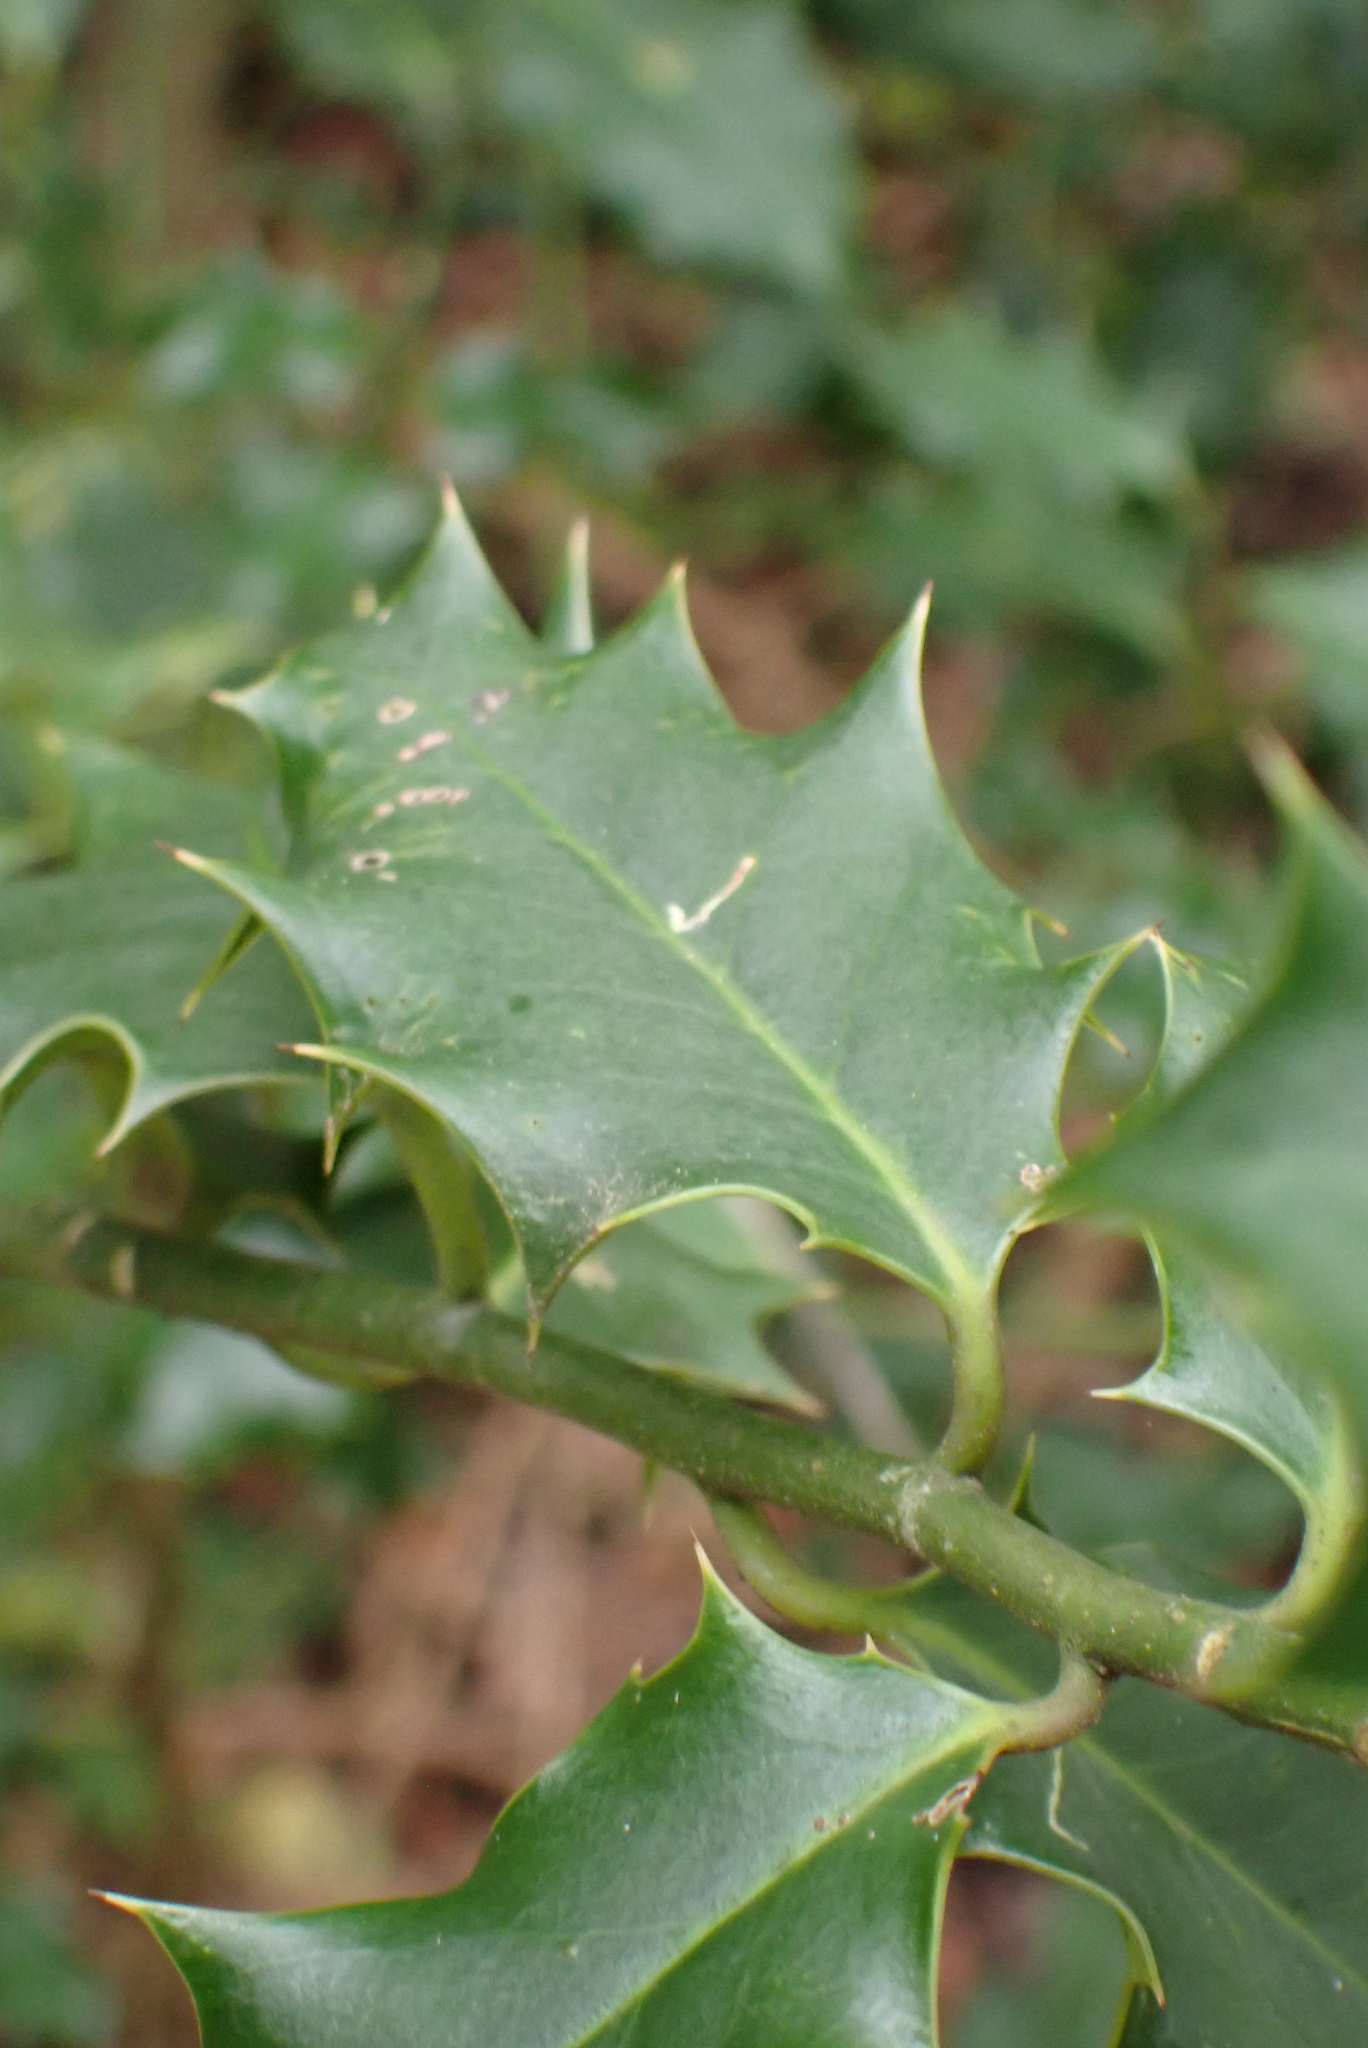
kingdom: Plantae
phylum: Tracheophyta
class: Magnoliopsida
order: Aquifoliales
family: Aquifoliaceae
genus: Ilex
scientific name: Ilex aquifolium
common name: English holly
